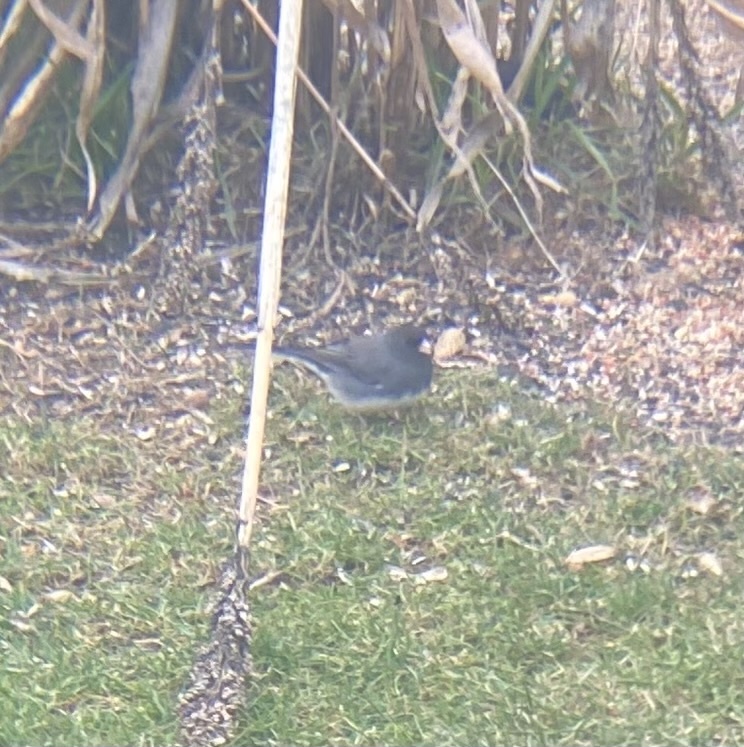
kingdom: Animalia
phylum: Chordata
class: Aves
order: Passeriformes
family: Passerellidae
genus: Junco
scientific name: Junco hyemalis
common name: Dark-eyed junco
